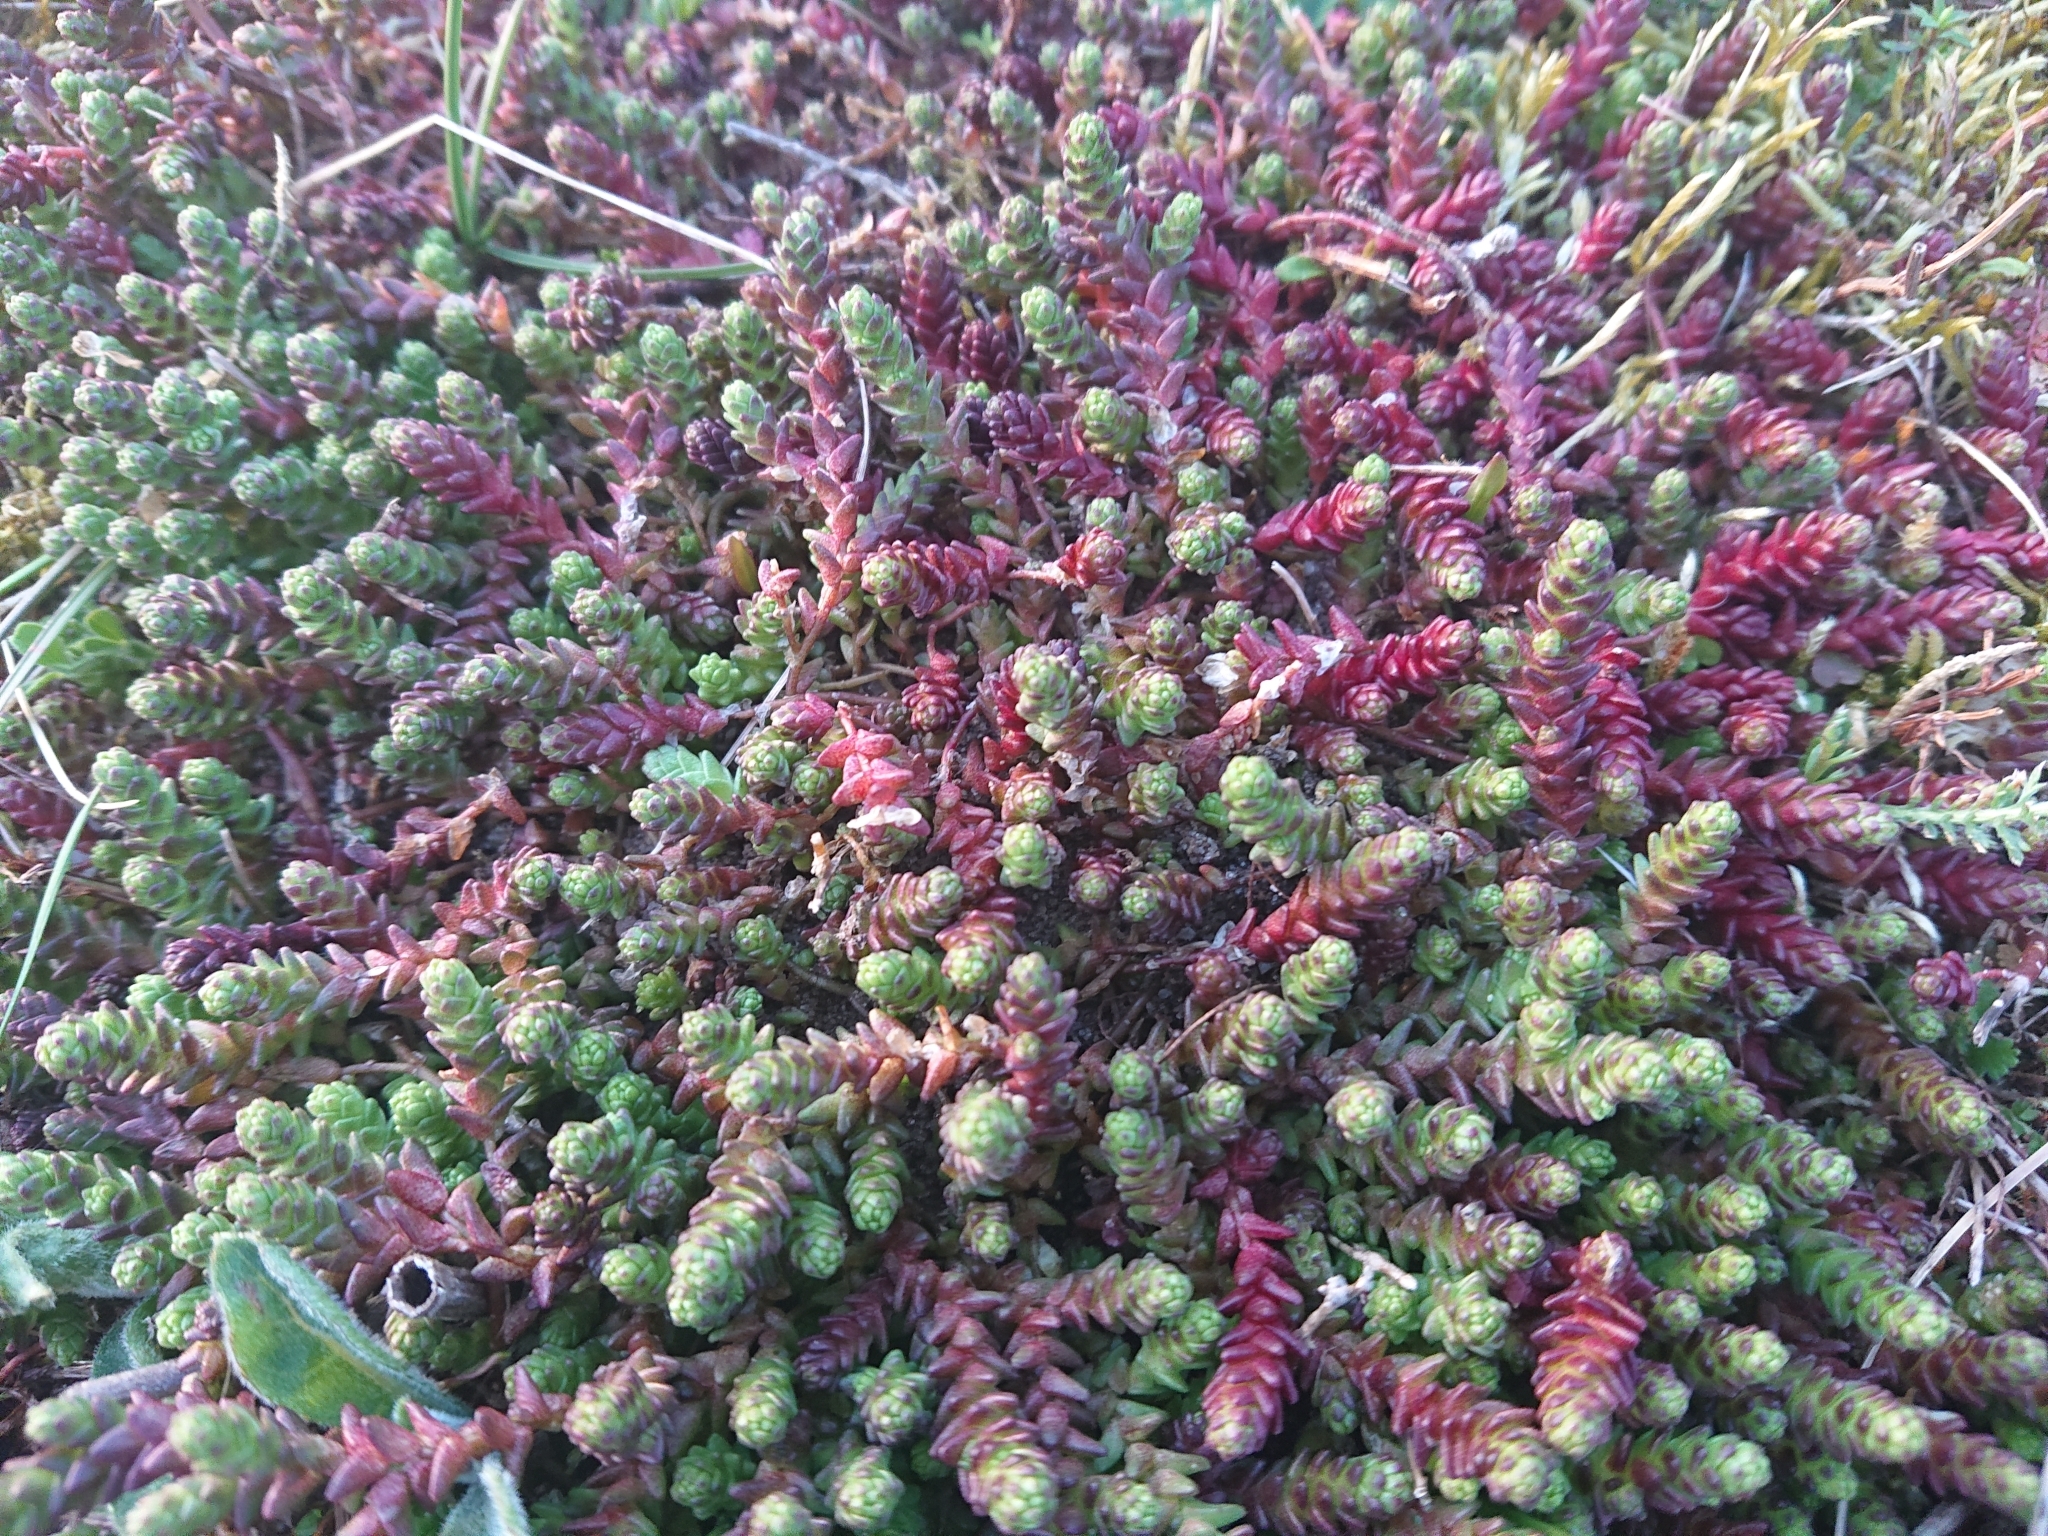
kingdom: Plantae
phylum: Tracheophyta
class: Magnoliopsida
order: Saxifragales
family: Crassulaceae
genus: Sedum
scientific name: Sedum acre
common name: Biting stonecrop
